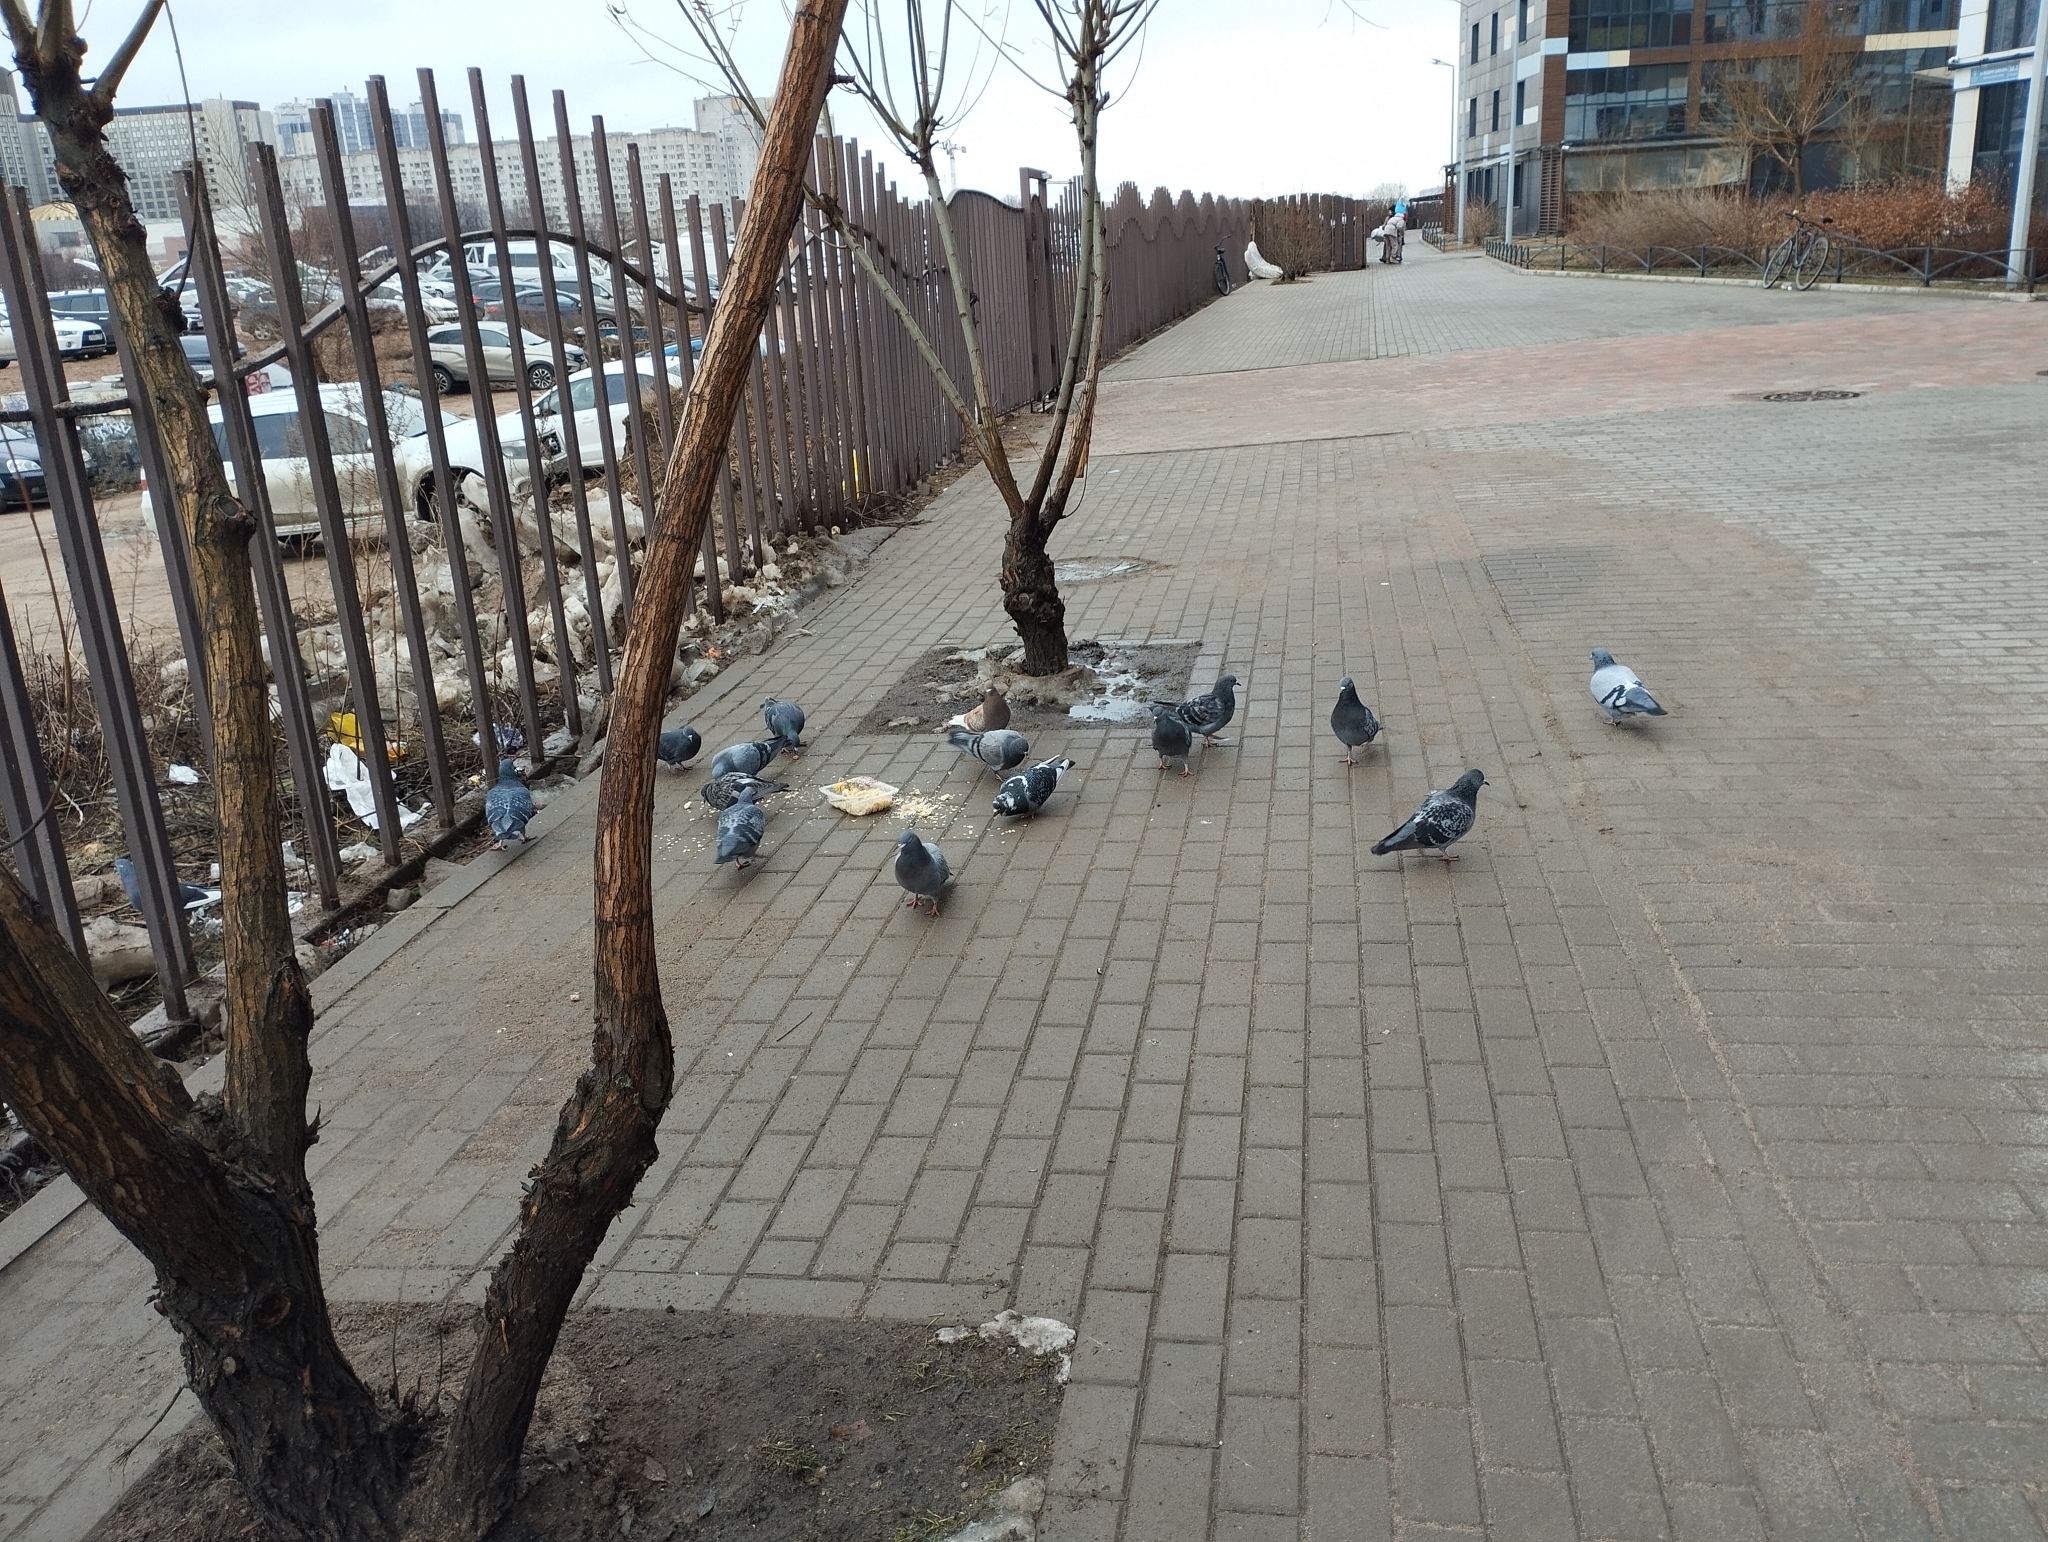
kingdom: Animalia
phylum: Chordata
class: Aves
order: Columbiformes
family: Columbidae
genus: Columba
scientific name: Columba livia
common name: Rock pigeon
